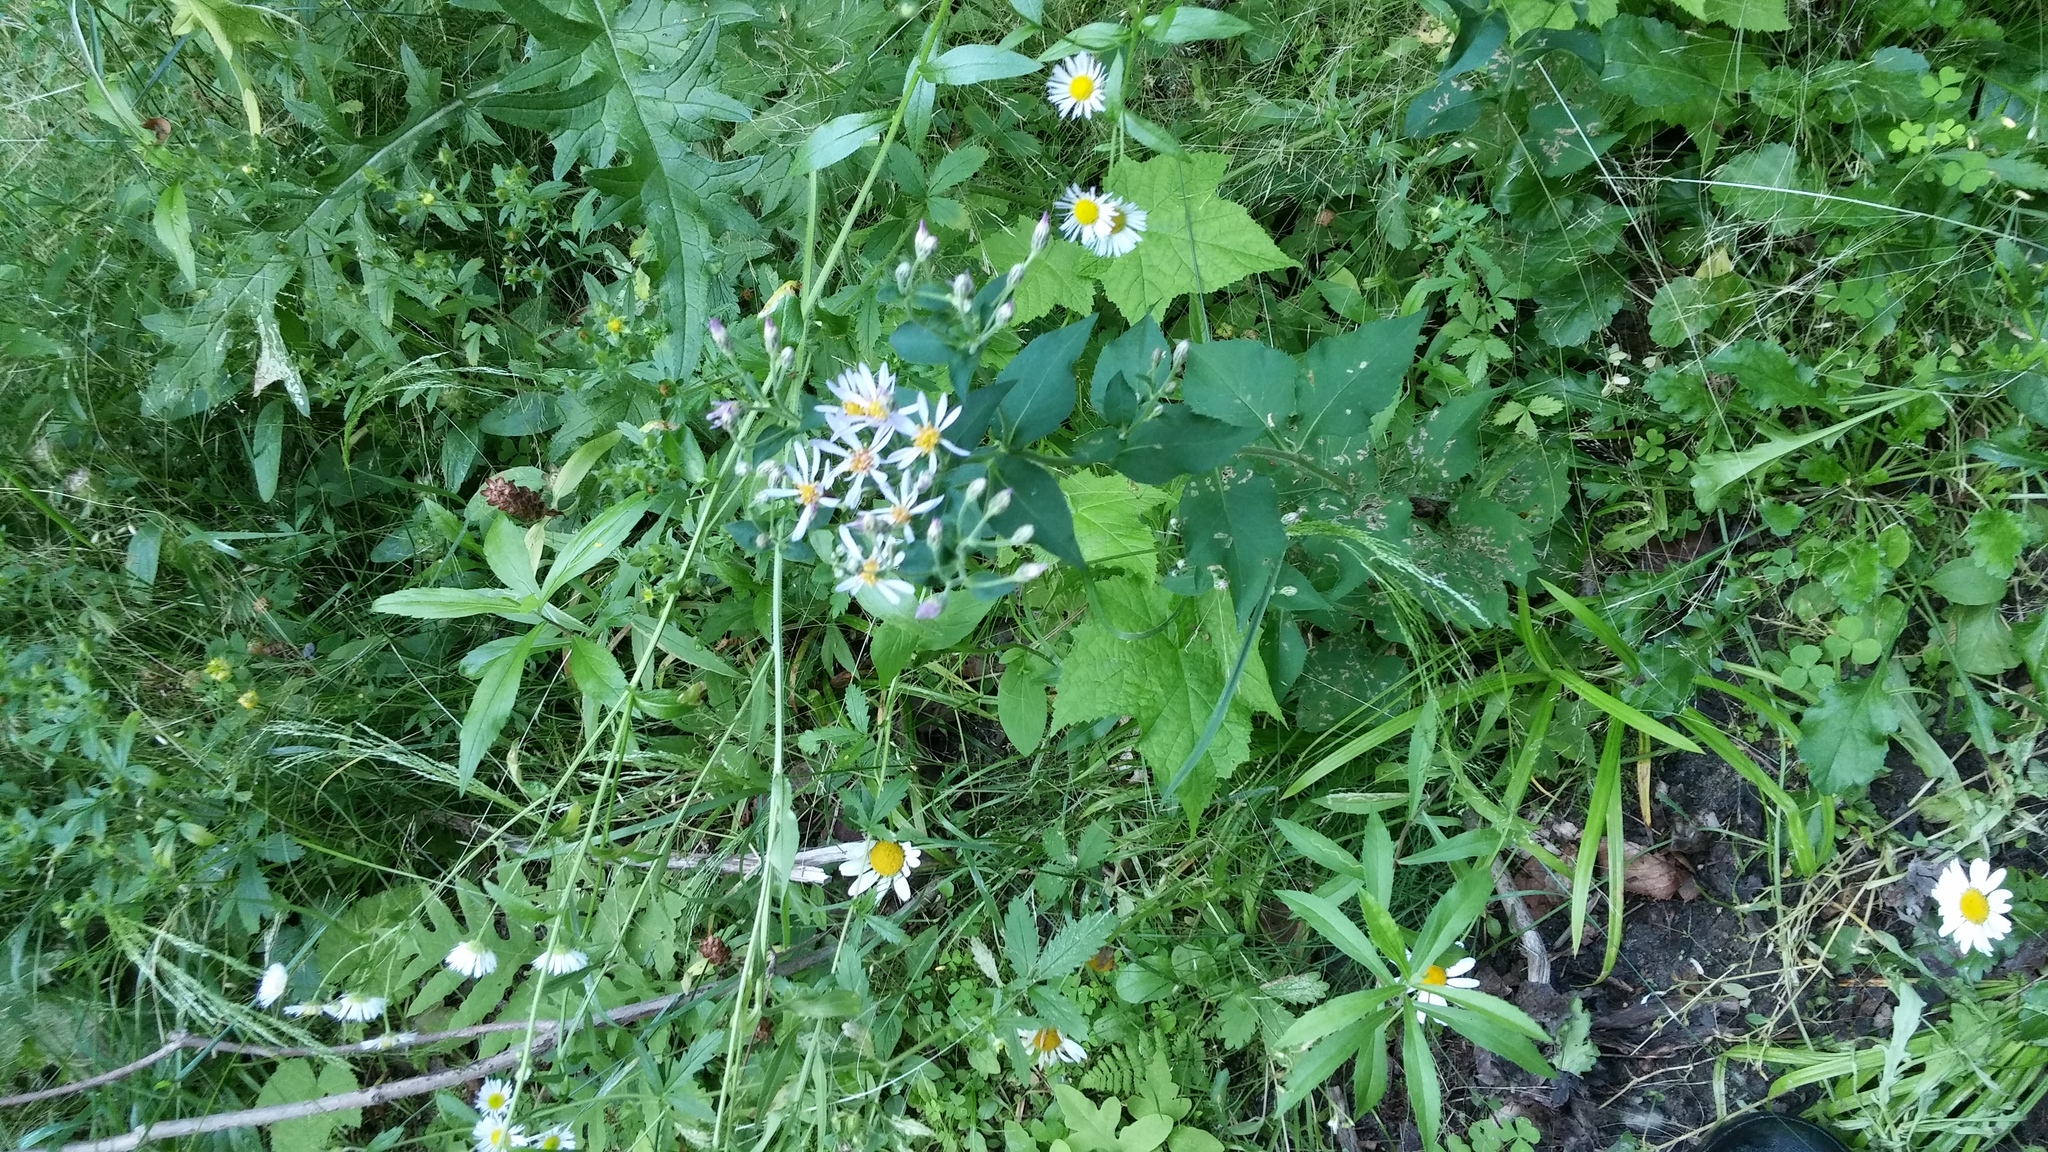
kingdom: Plantae
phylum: Tracheophyta
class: Magnoliopsida
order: Asterales
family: Asteraceae
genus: Eurybia
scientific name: Eurybia macrophylla
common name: Big-leaved aster
